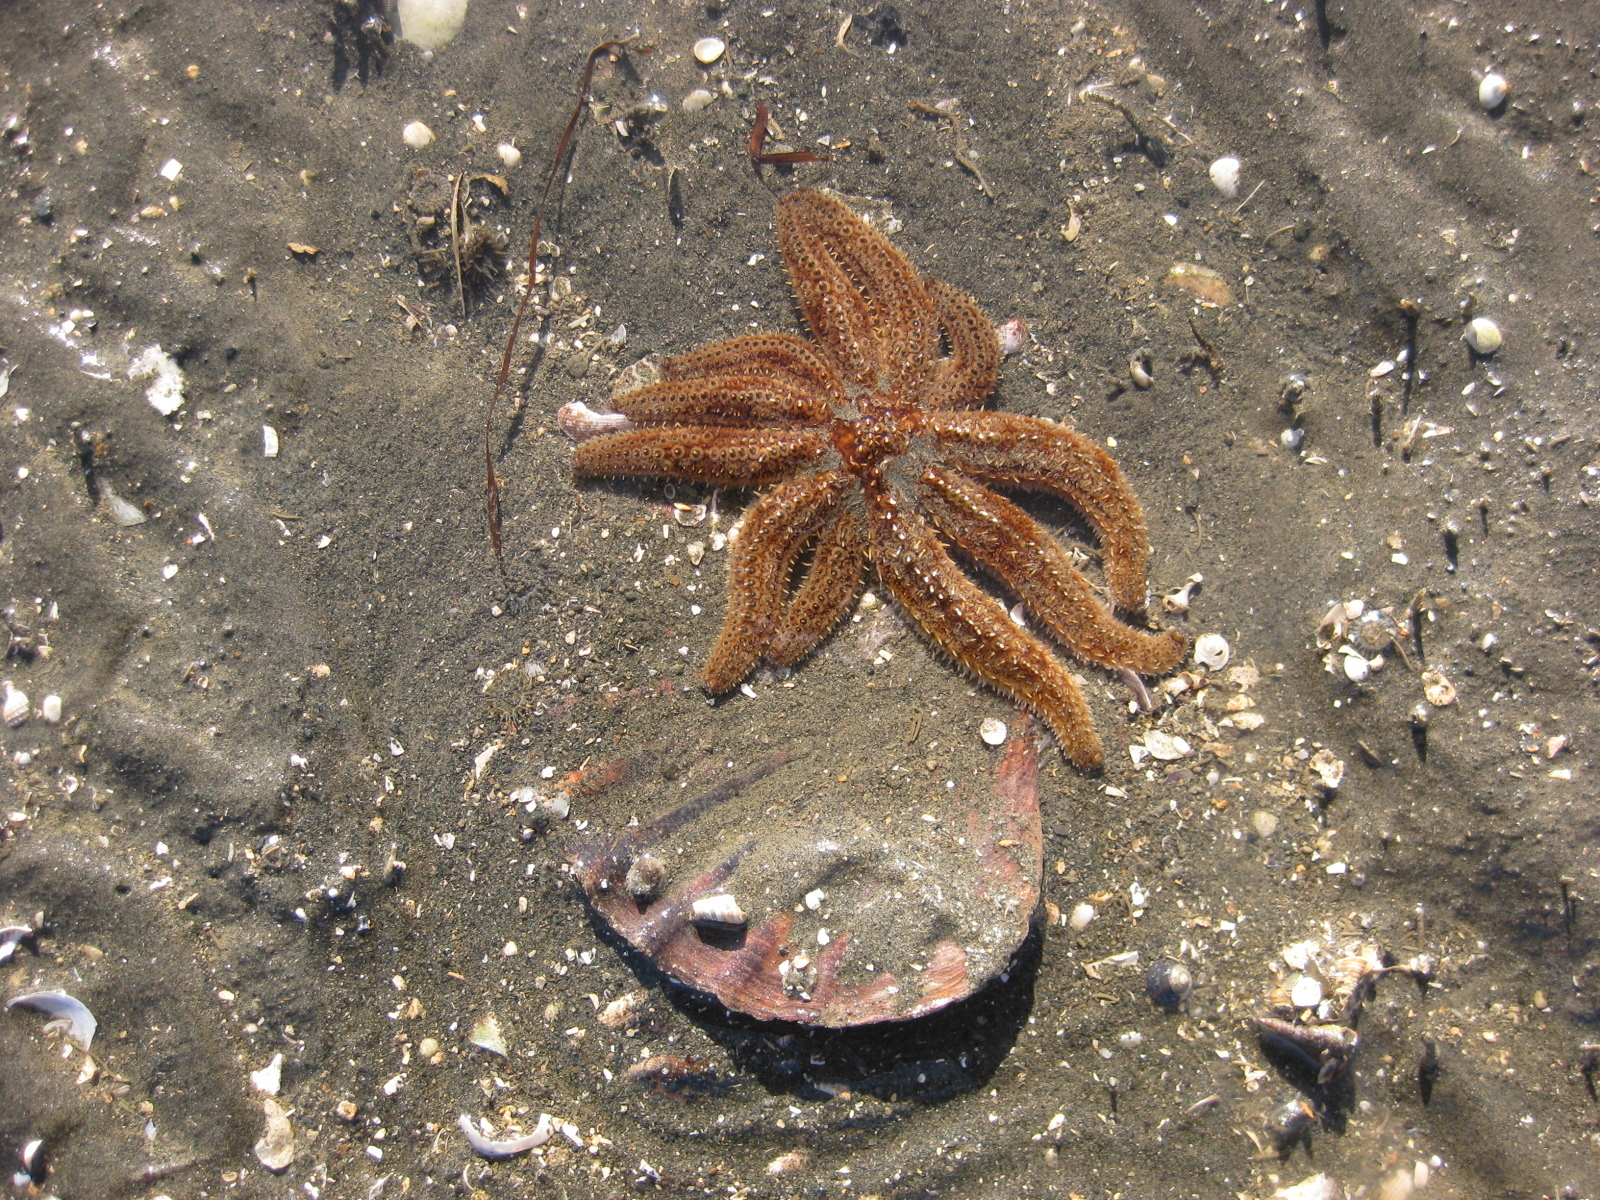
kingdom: Animalia
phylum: Echinodermata
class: Asteroidea
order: Forcipulatida
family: Asteriidae
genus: Coscinasterias
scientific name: Coscinasterias muricata
